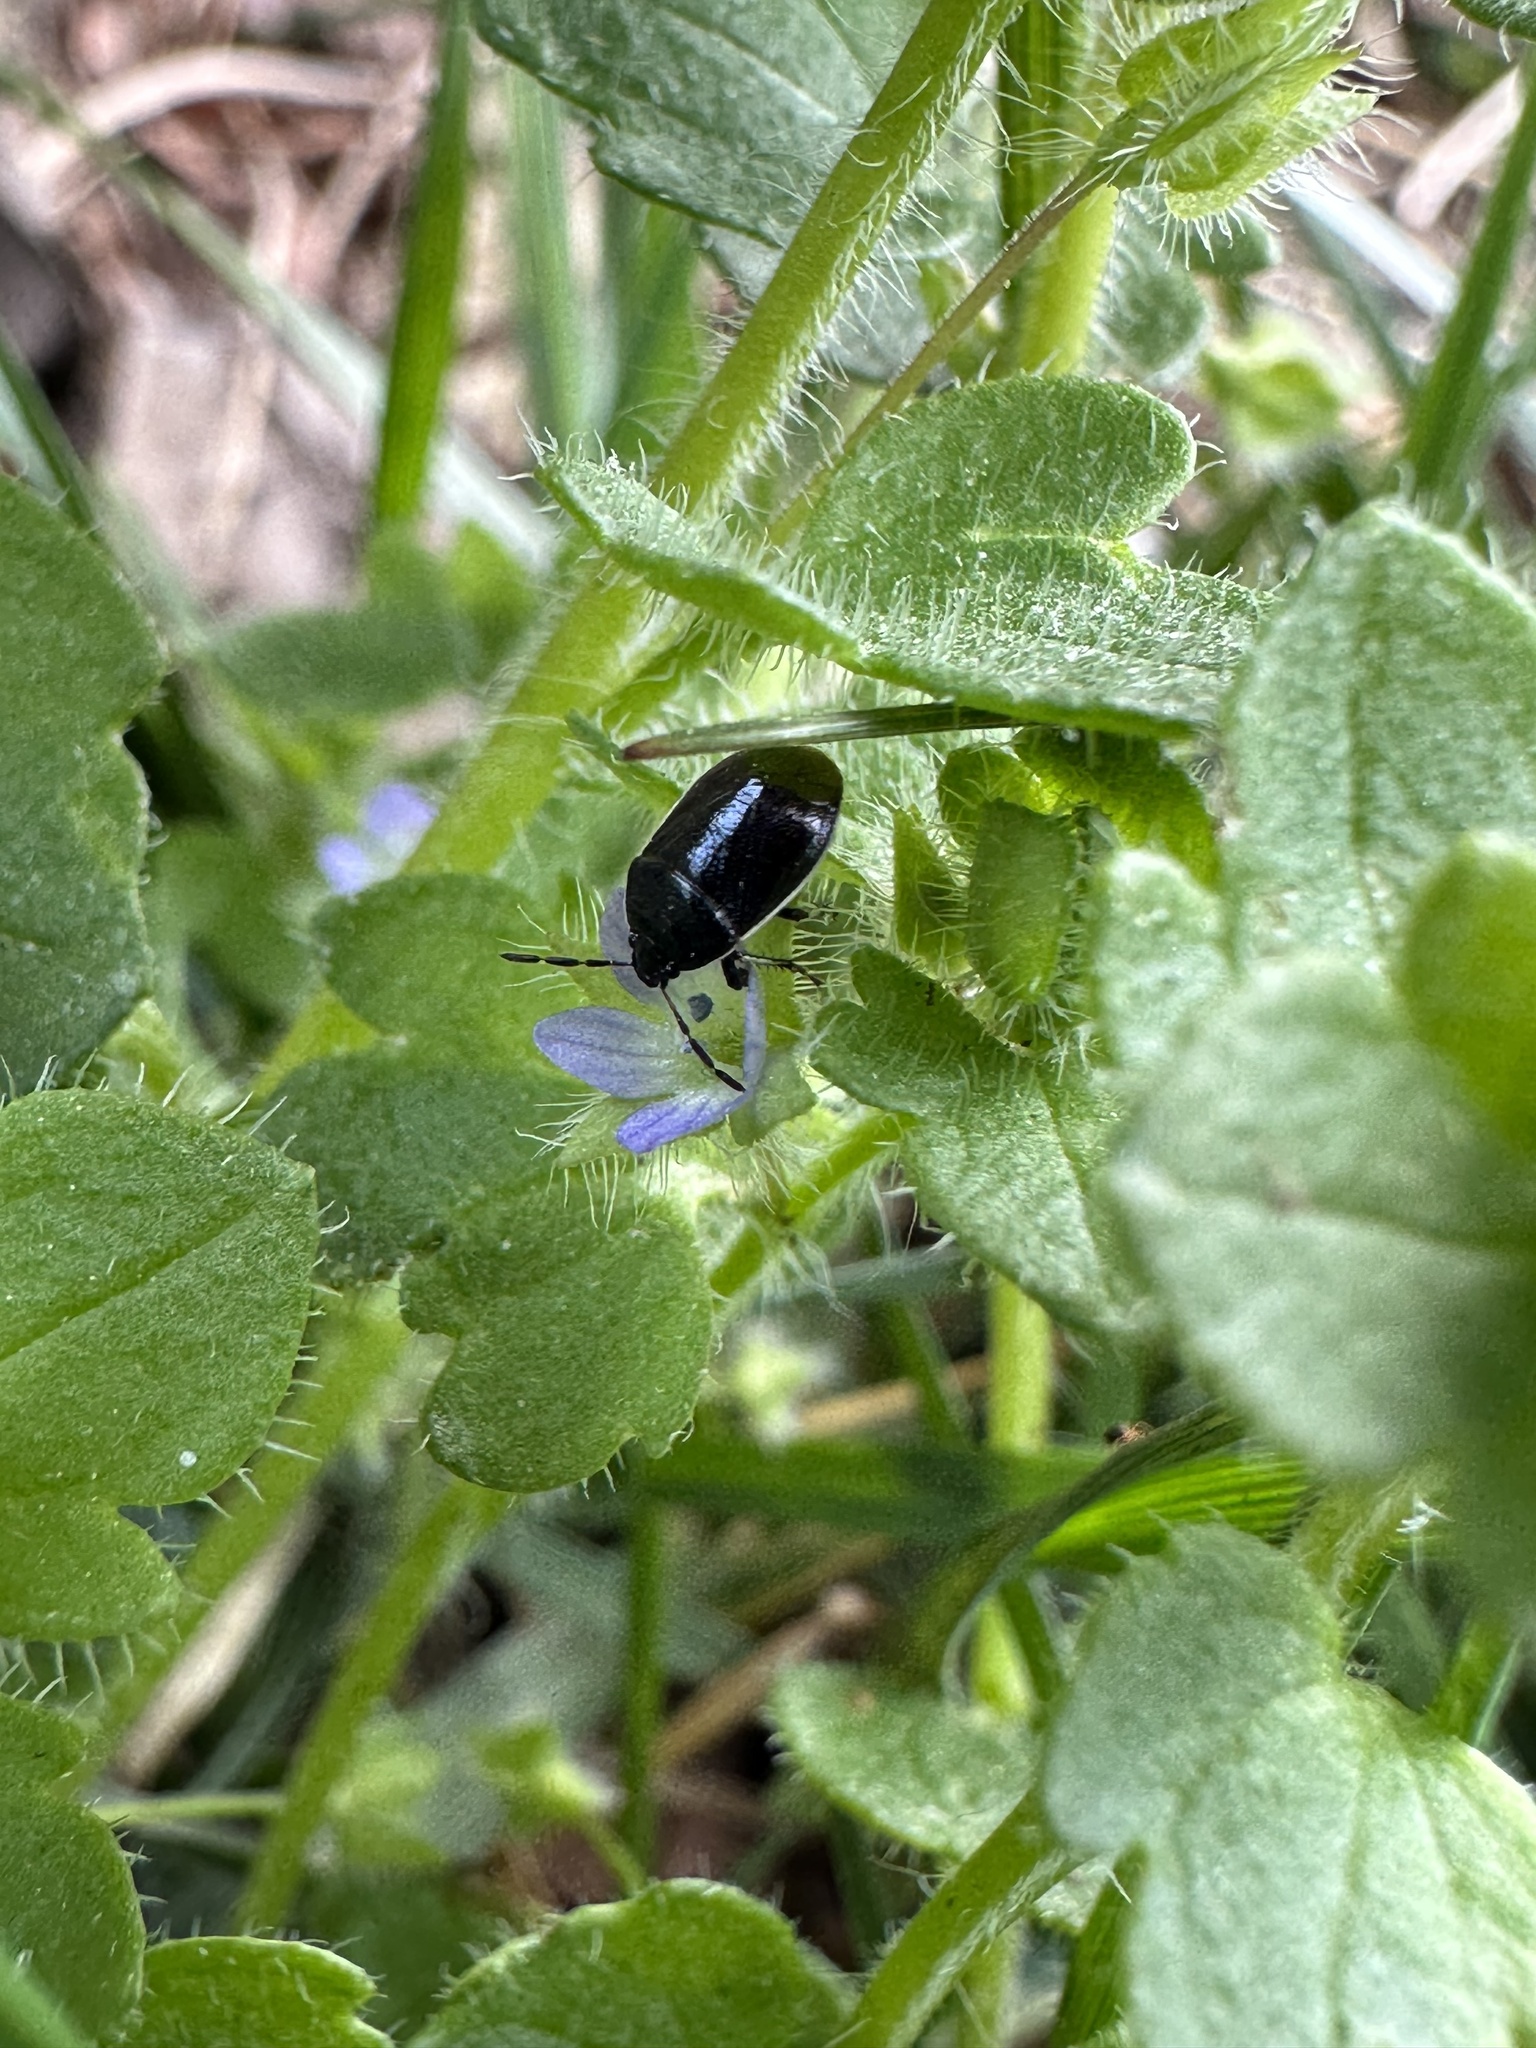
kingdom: Animalia
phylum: Arthropoda
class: Insecta
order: Hemiptera
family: Cydnidae
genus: Sehirus
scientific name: Sehirus cinctus
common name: White-margined burrower bug
